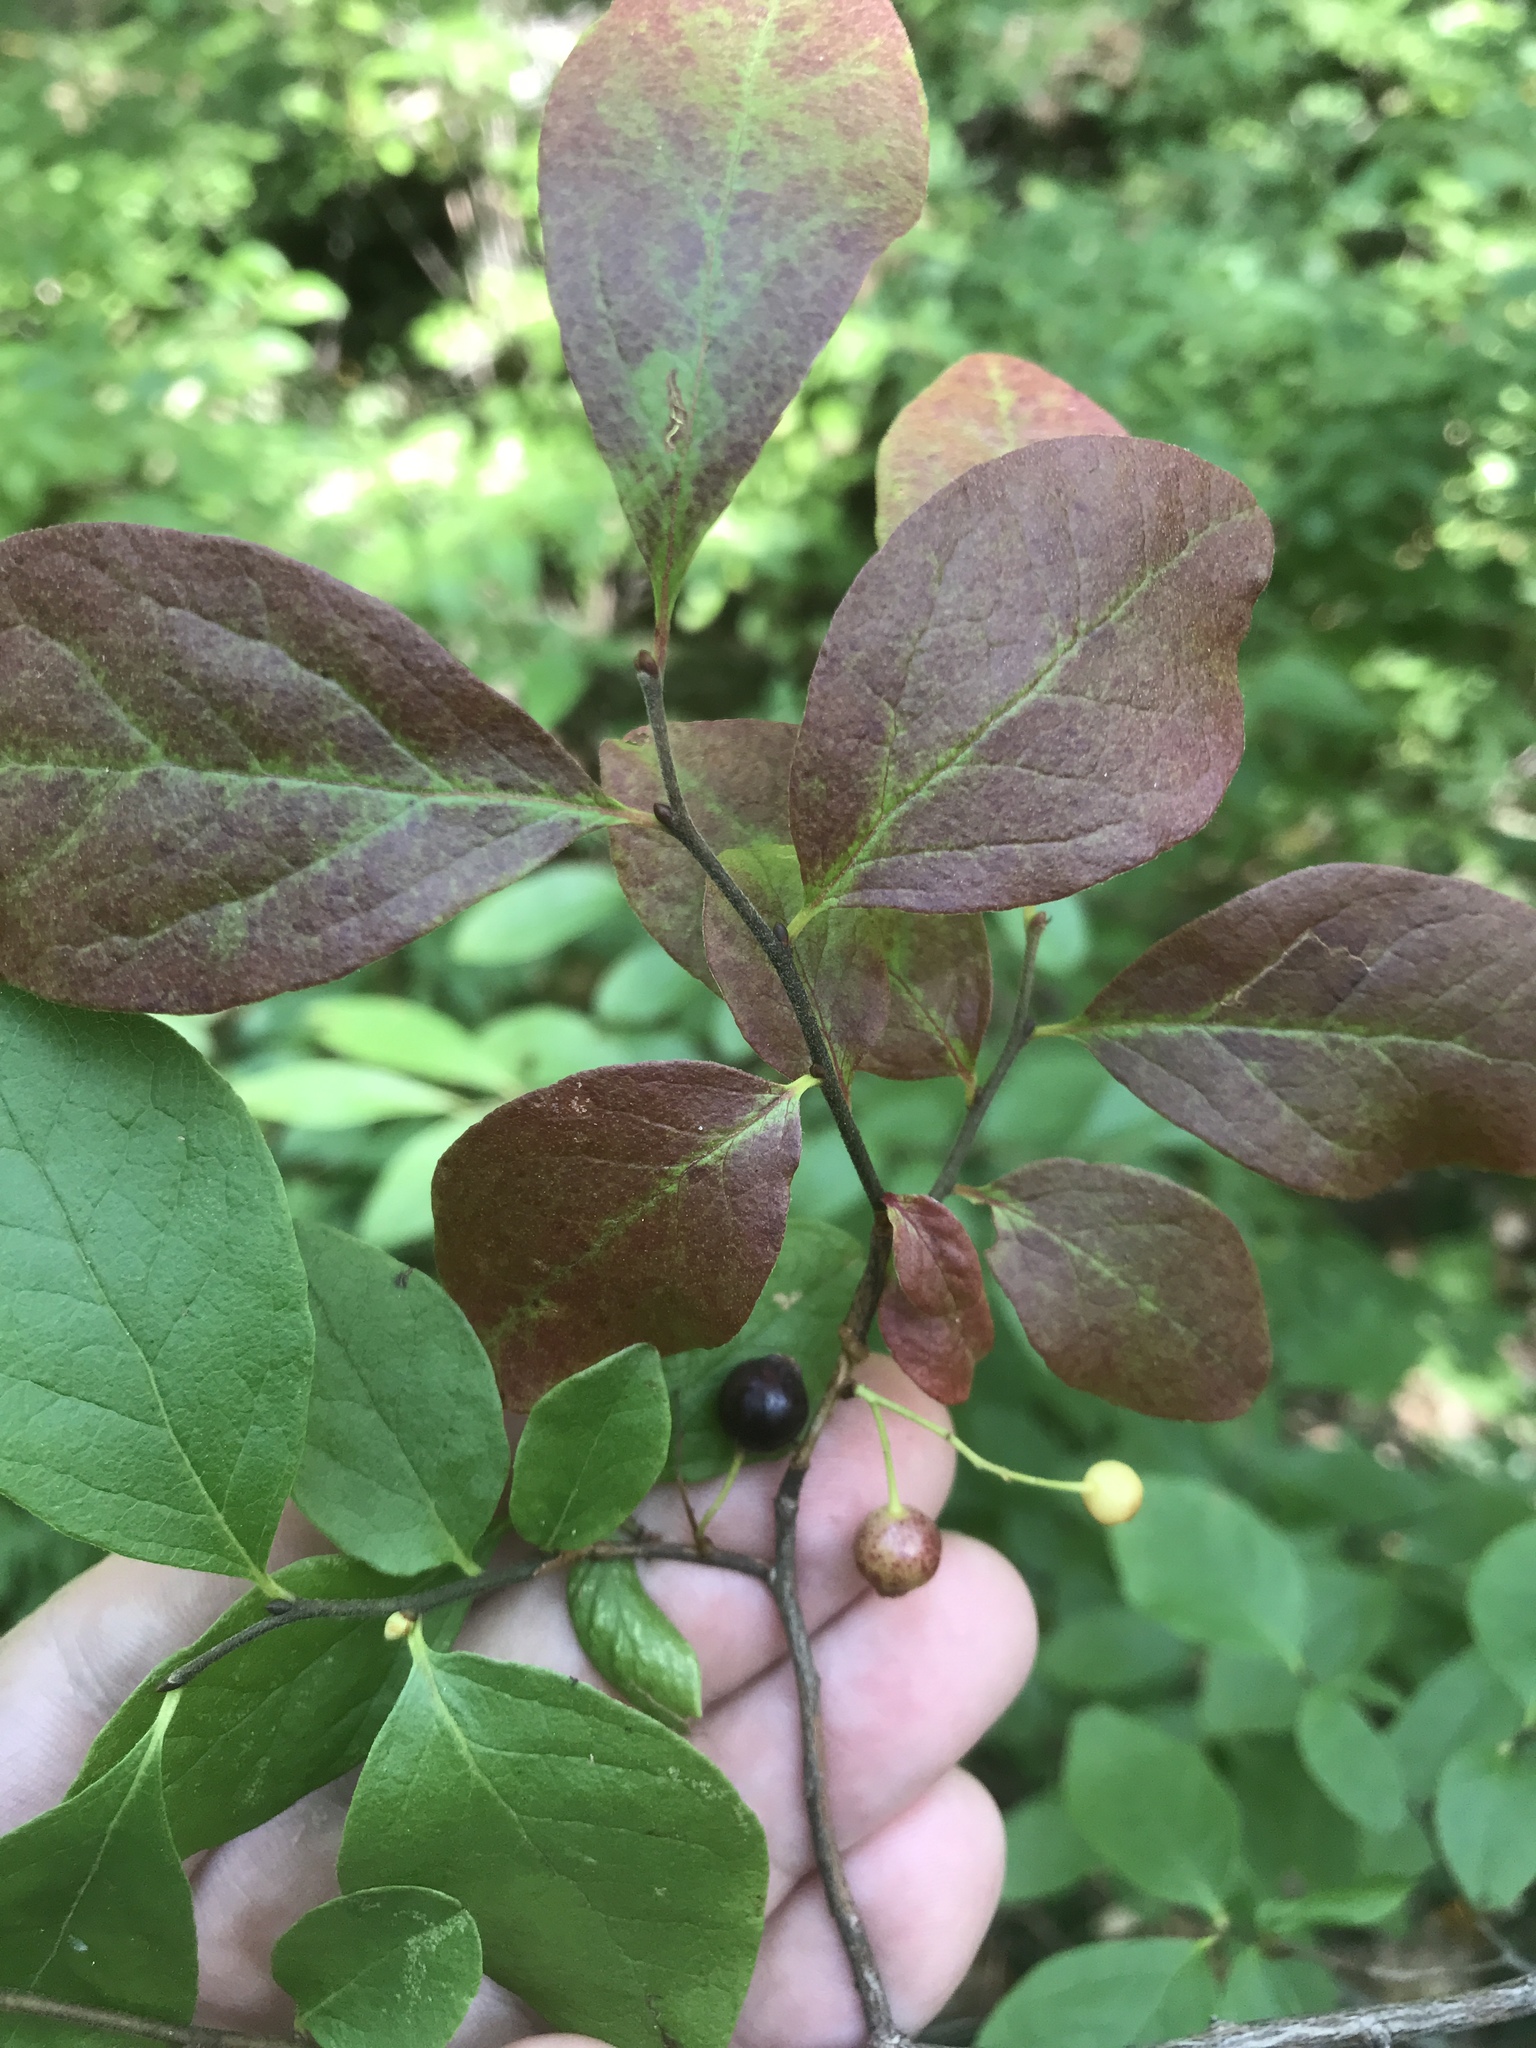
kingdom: Plantae
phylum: Tracheophyta
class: Magnoliopsida
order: Ericales
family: Ericaceae
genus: Gaylussacia
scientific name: Gaylussacia baccata
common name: Black huckleberry
